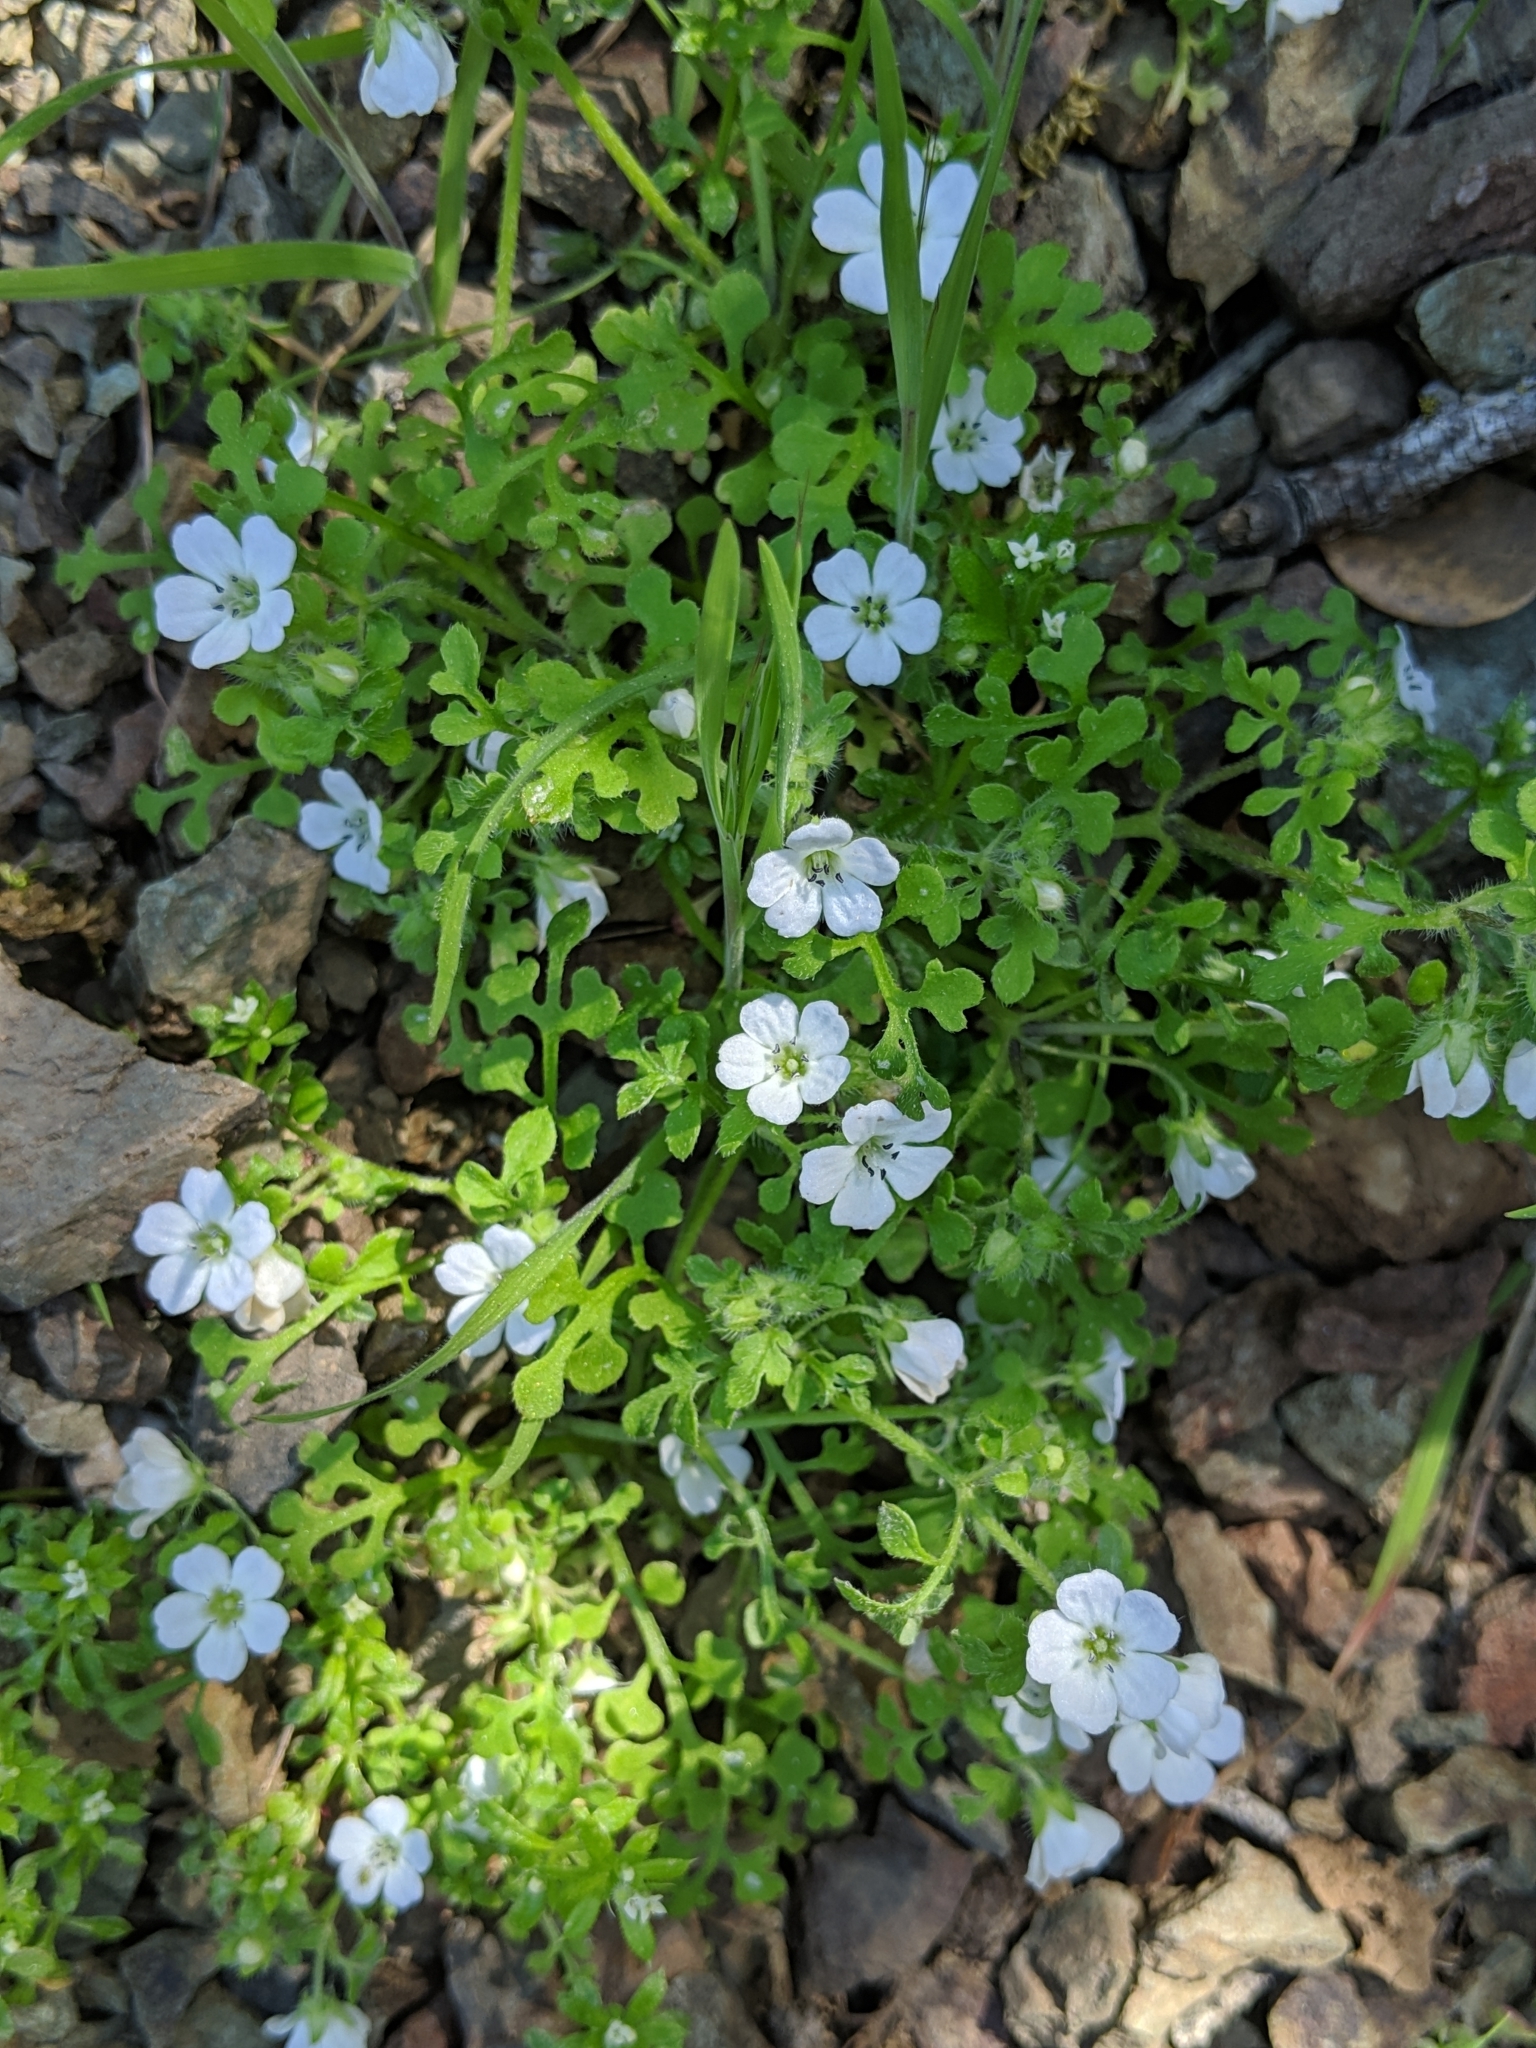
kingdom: Plantae
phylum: Tracheophyta
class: Magnoliopsida
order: Boraginales
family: Hydrophyllaceae
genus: Nemophila
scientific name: Nemophila heterophylla
